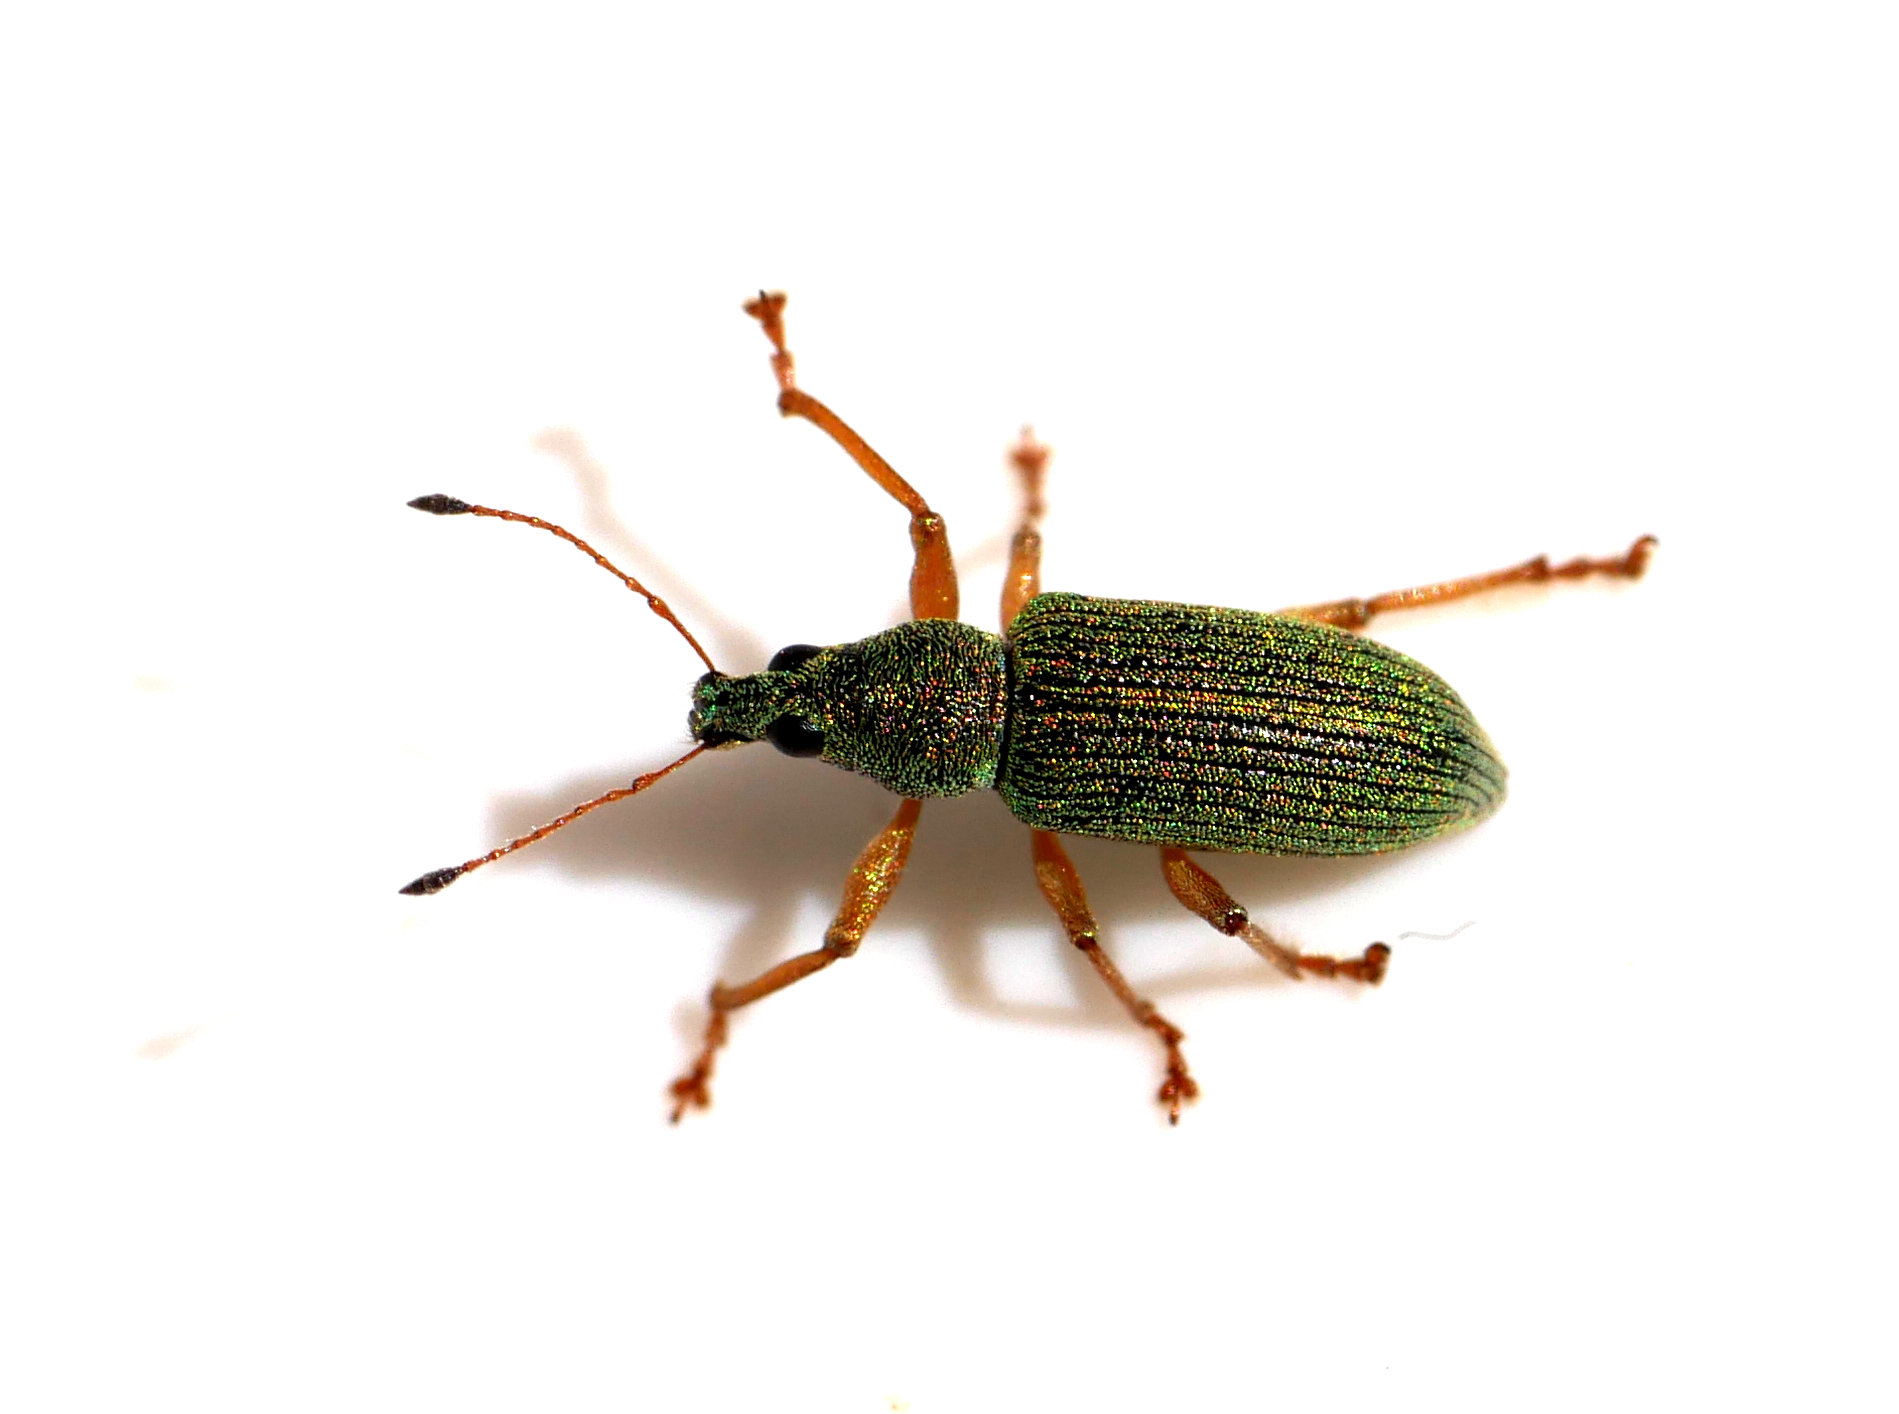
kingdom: Animalia
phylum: Arthropoda
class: Insecta
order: Coleoptera
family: Curculionidae
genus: Polydrusus
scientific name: Polydrusus formosus
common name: Weevil
